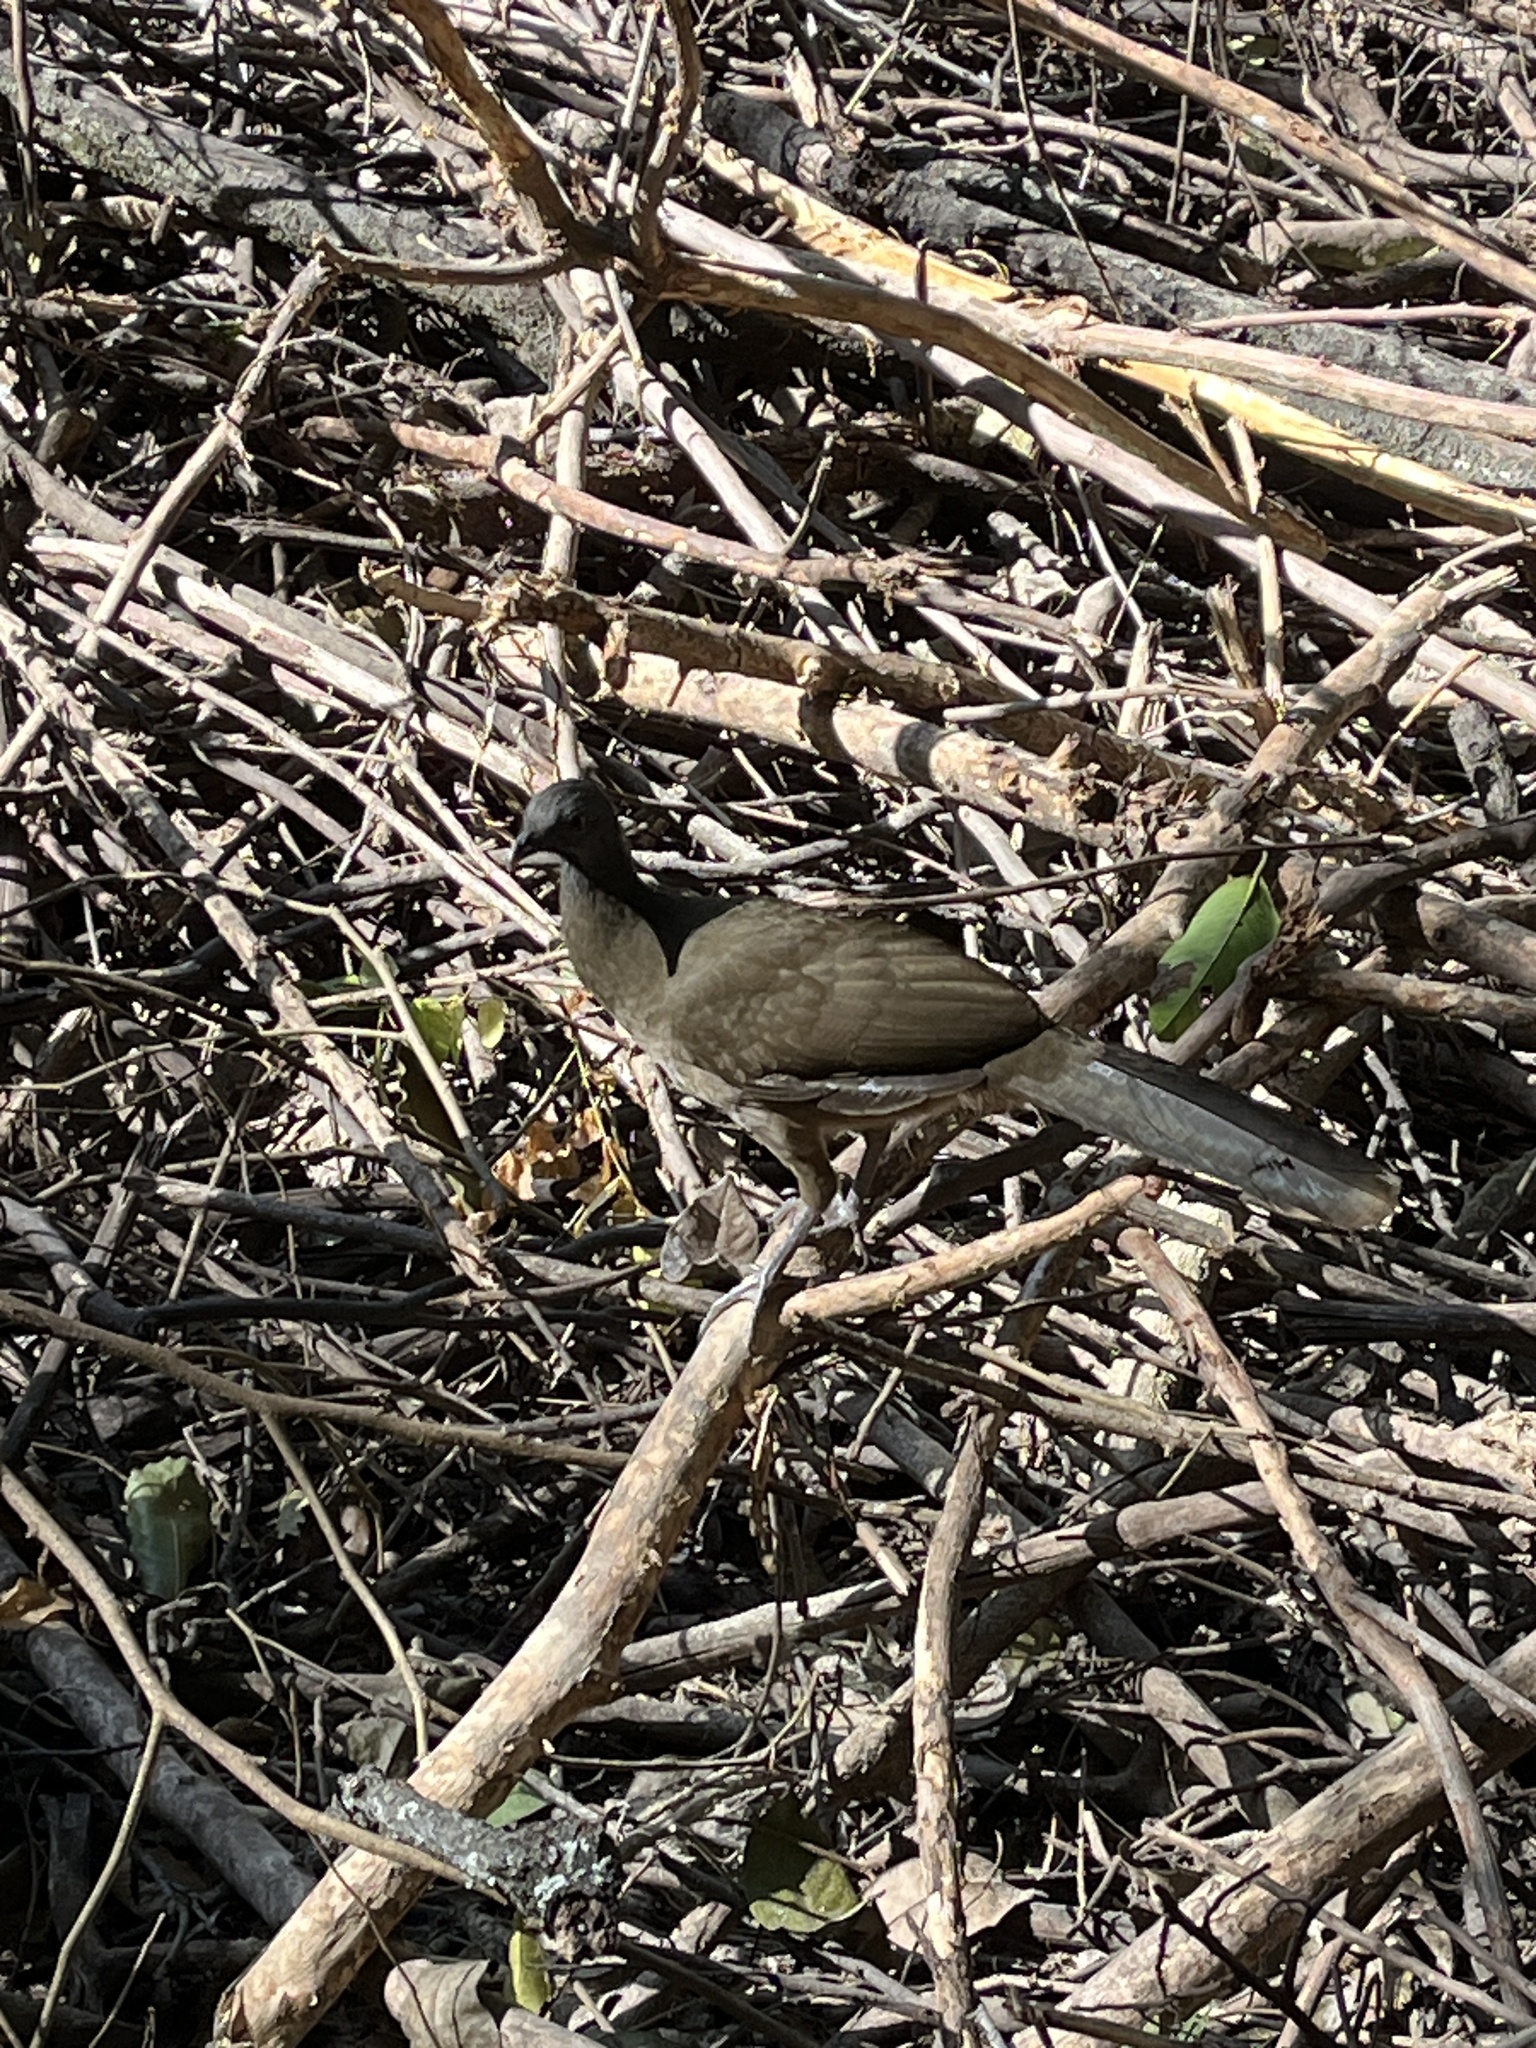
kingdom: Animalia
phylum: Chordata
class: Aves
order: Galliformes
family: Cracidae
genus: Ortalis
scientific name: Ortalis vetula
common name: Plain chachalaca
